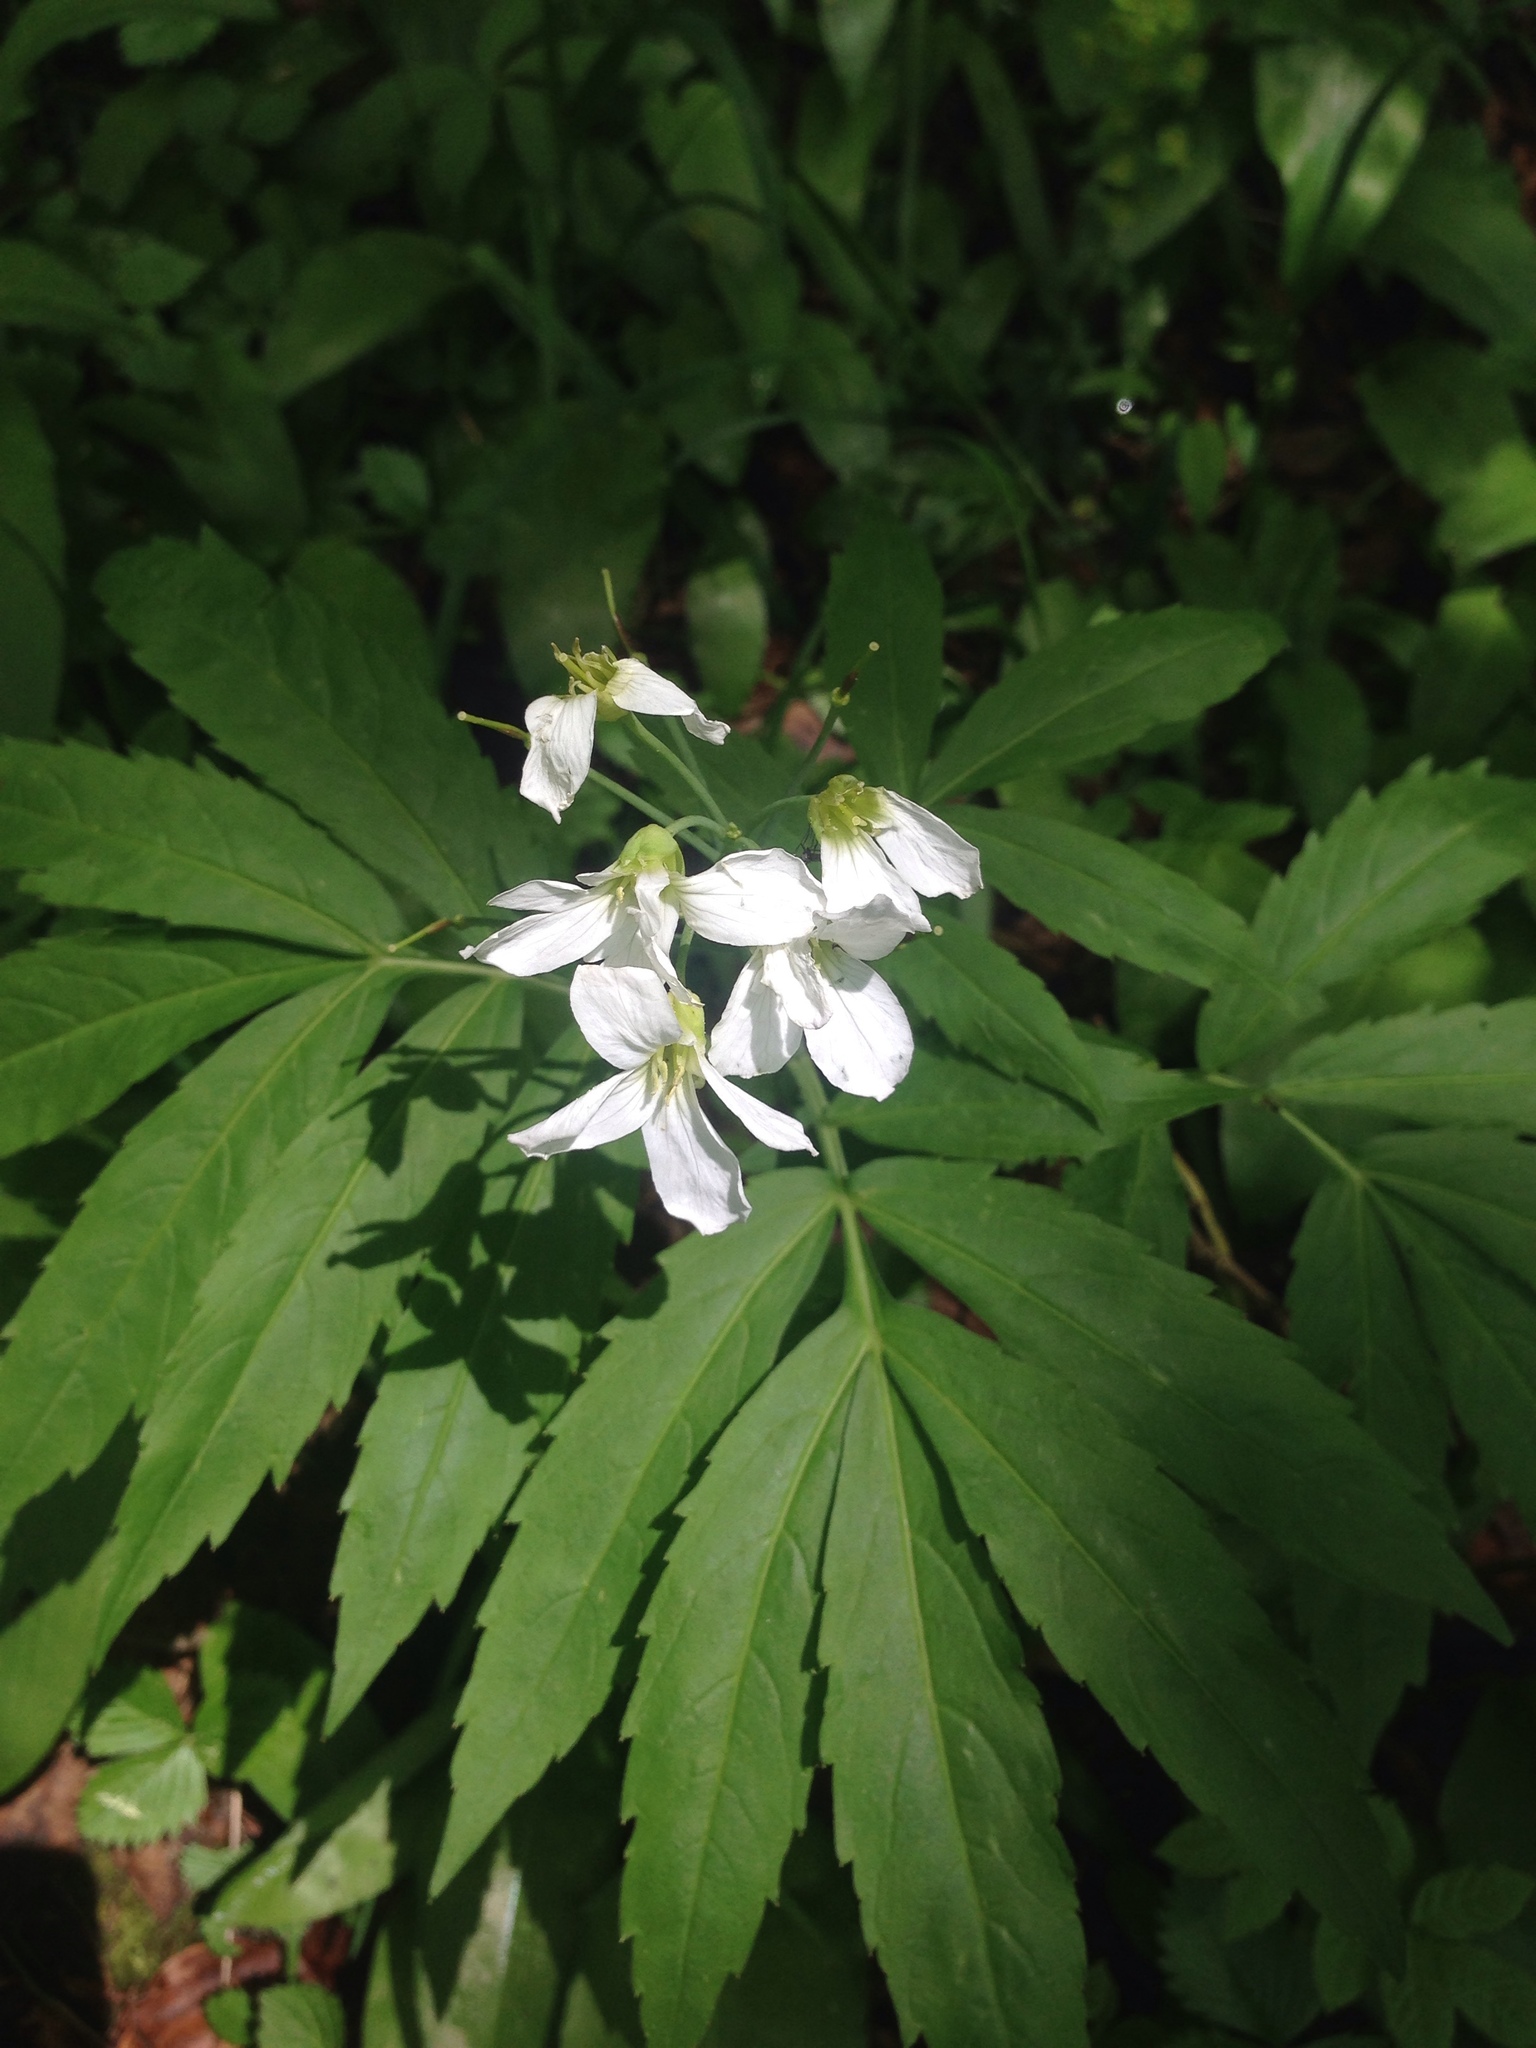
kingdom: Plantae
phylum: Tracheophyta
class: Magnoliopsida
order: Brassicales
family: Brassicaceae
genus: Cardamine
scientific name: Cardamine heptaphylla
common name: Pinnate coralroot
